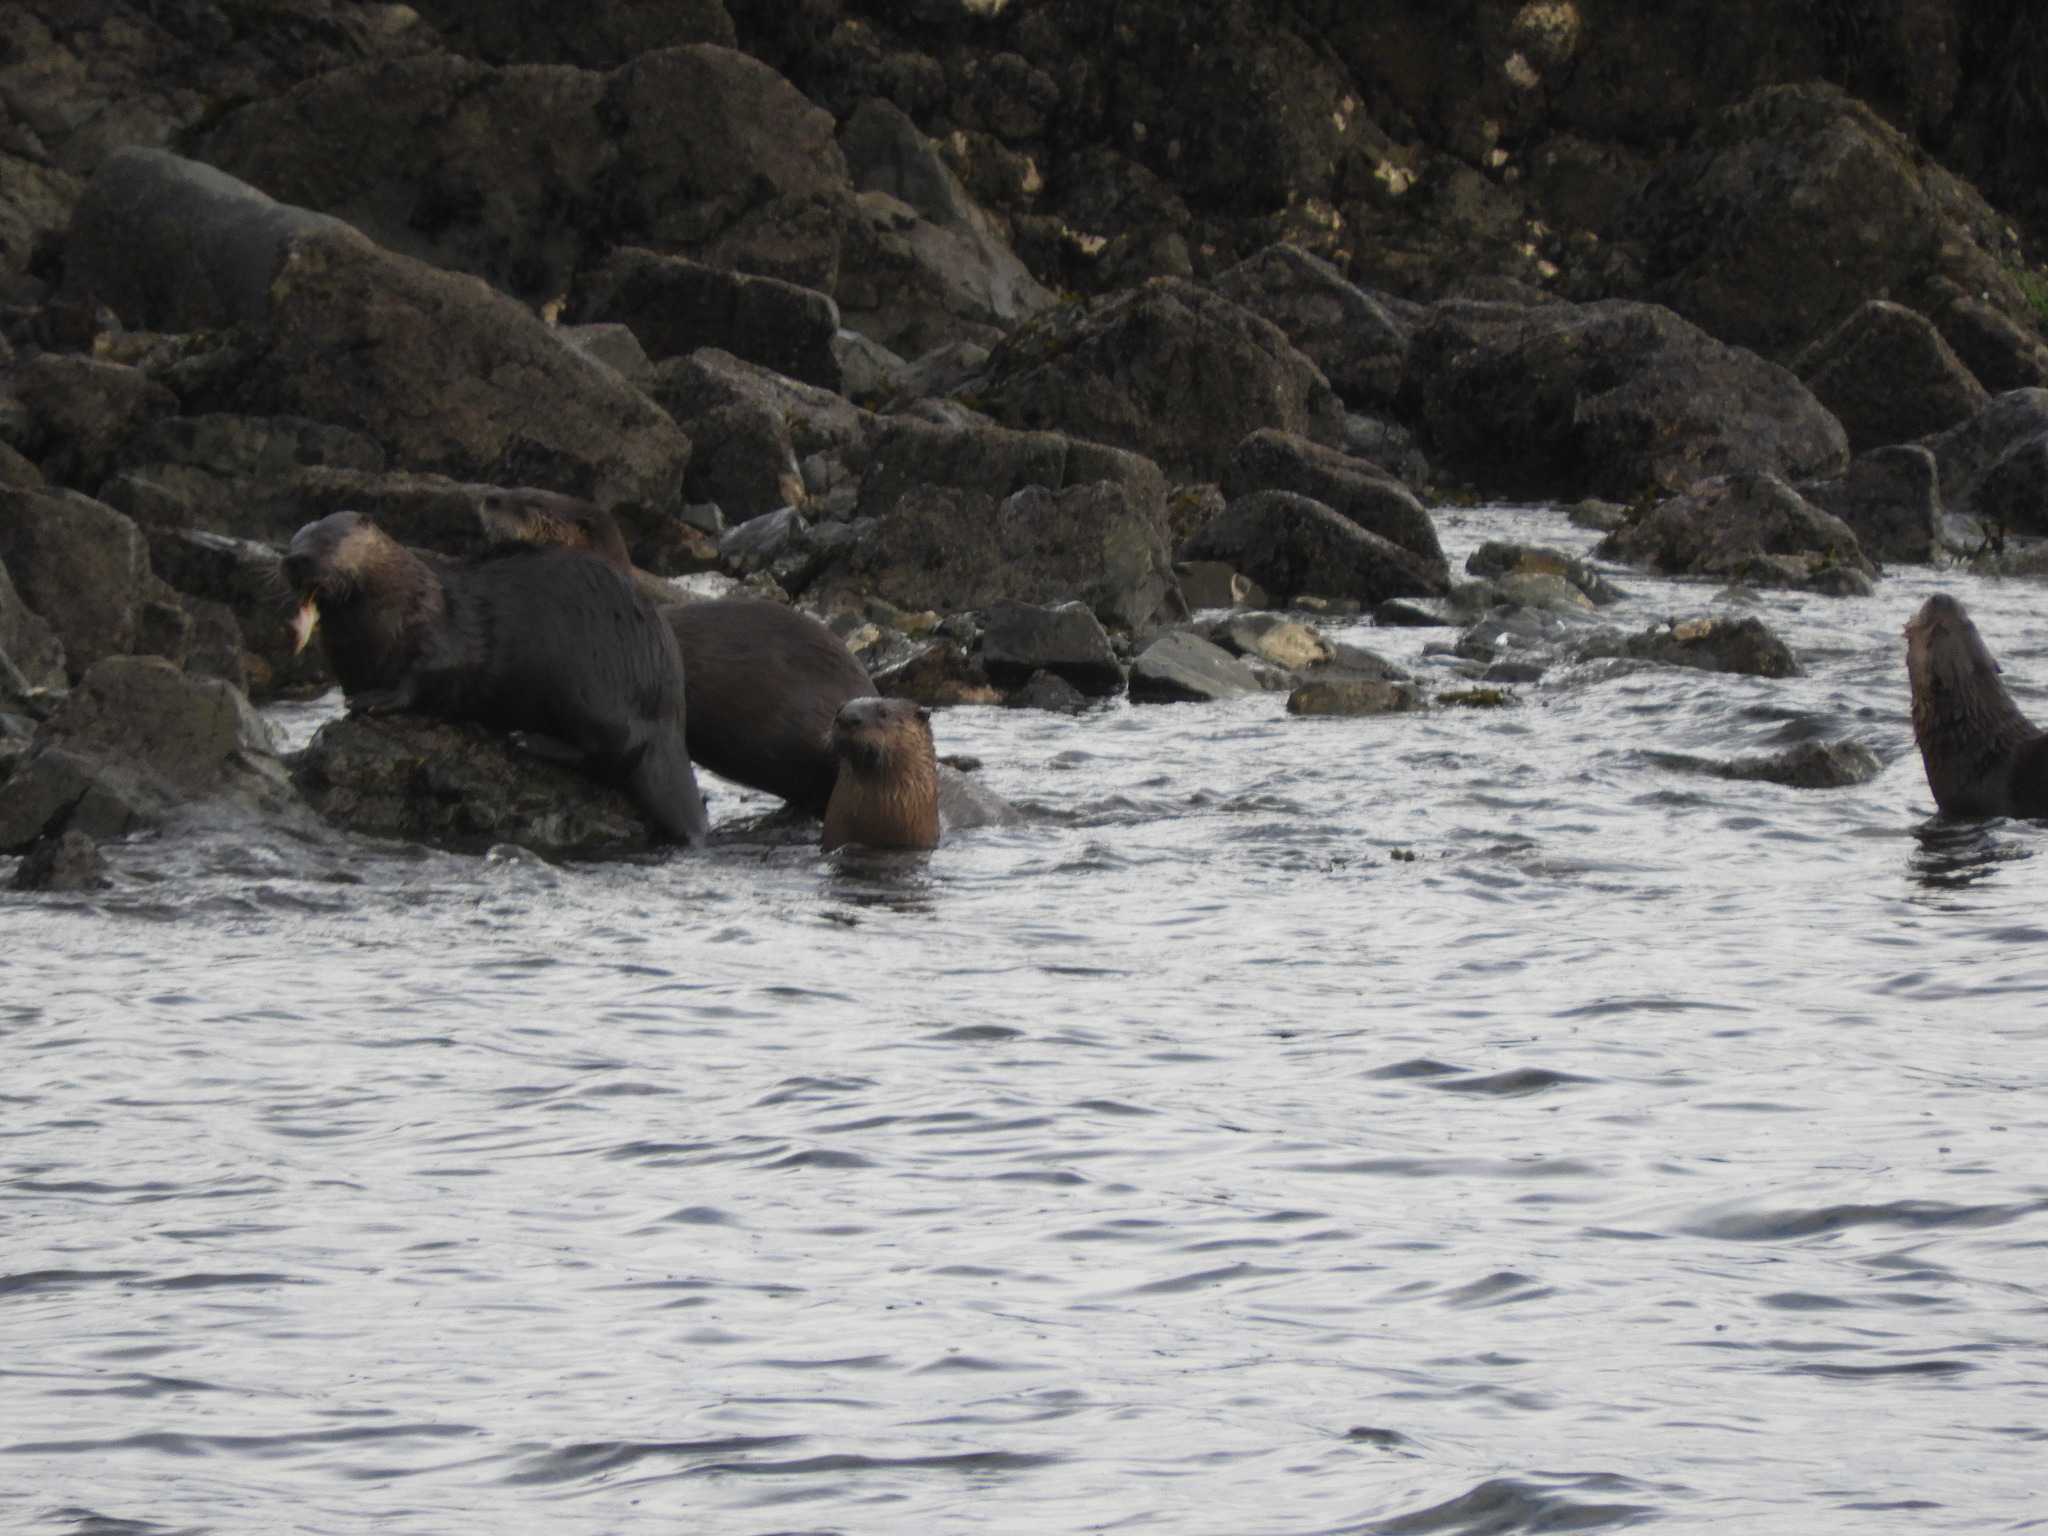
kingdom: Animalia
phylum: Chordata
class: Mammalia
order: Carnivora
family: Mustelidae
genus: Lontra
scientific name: Lontra canadensis
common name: North american river otter
